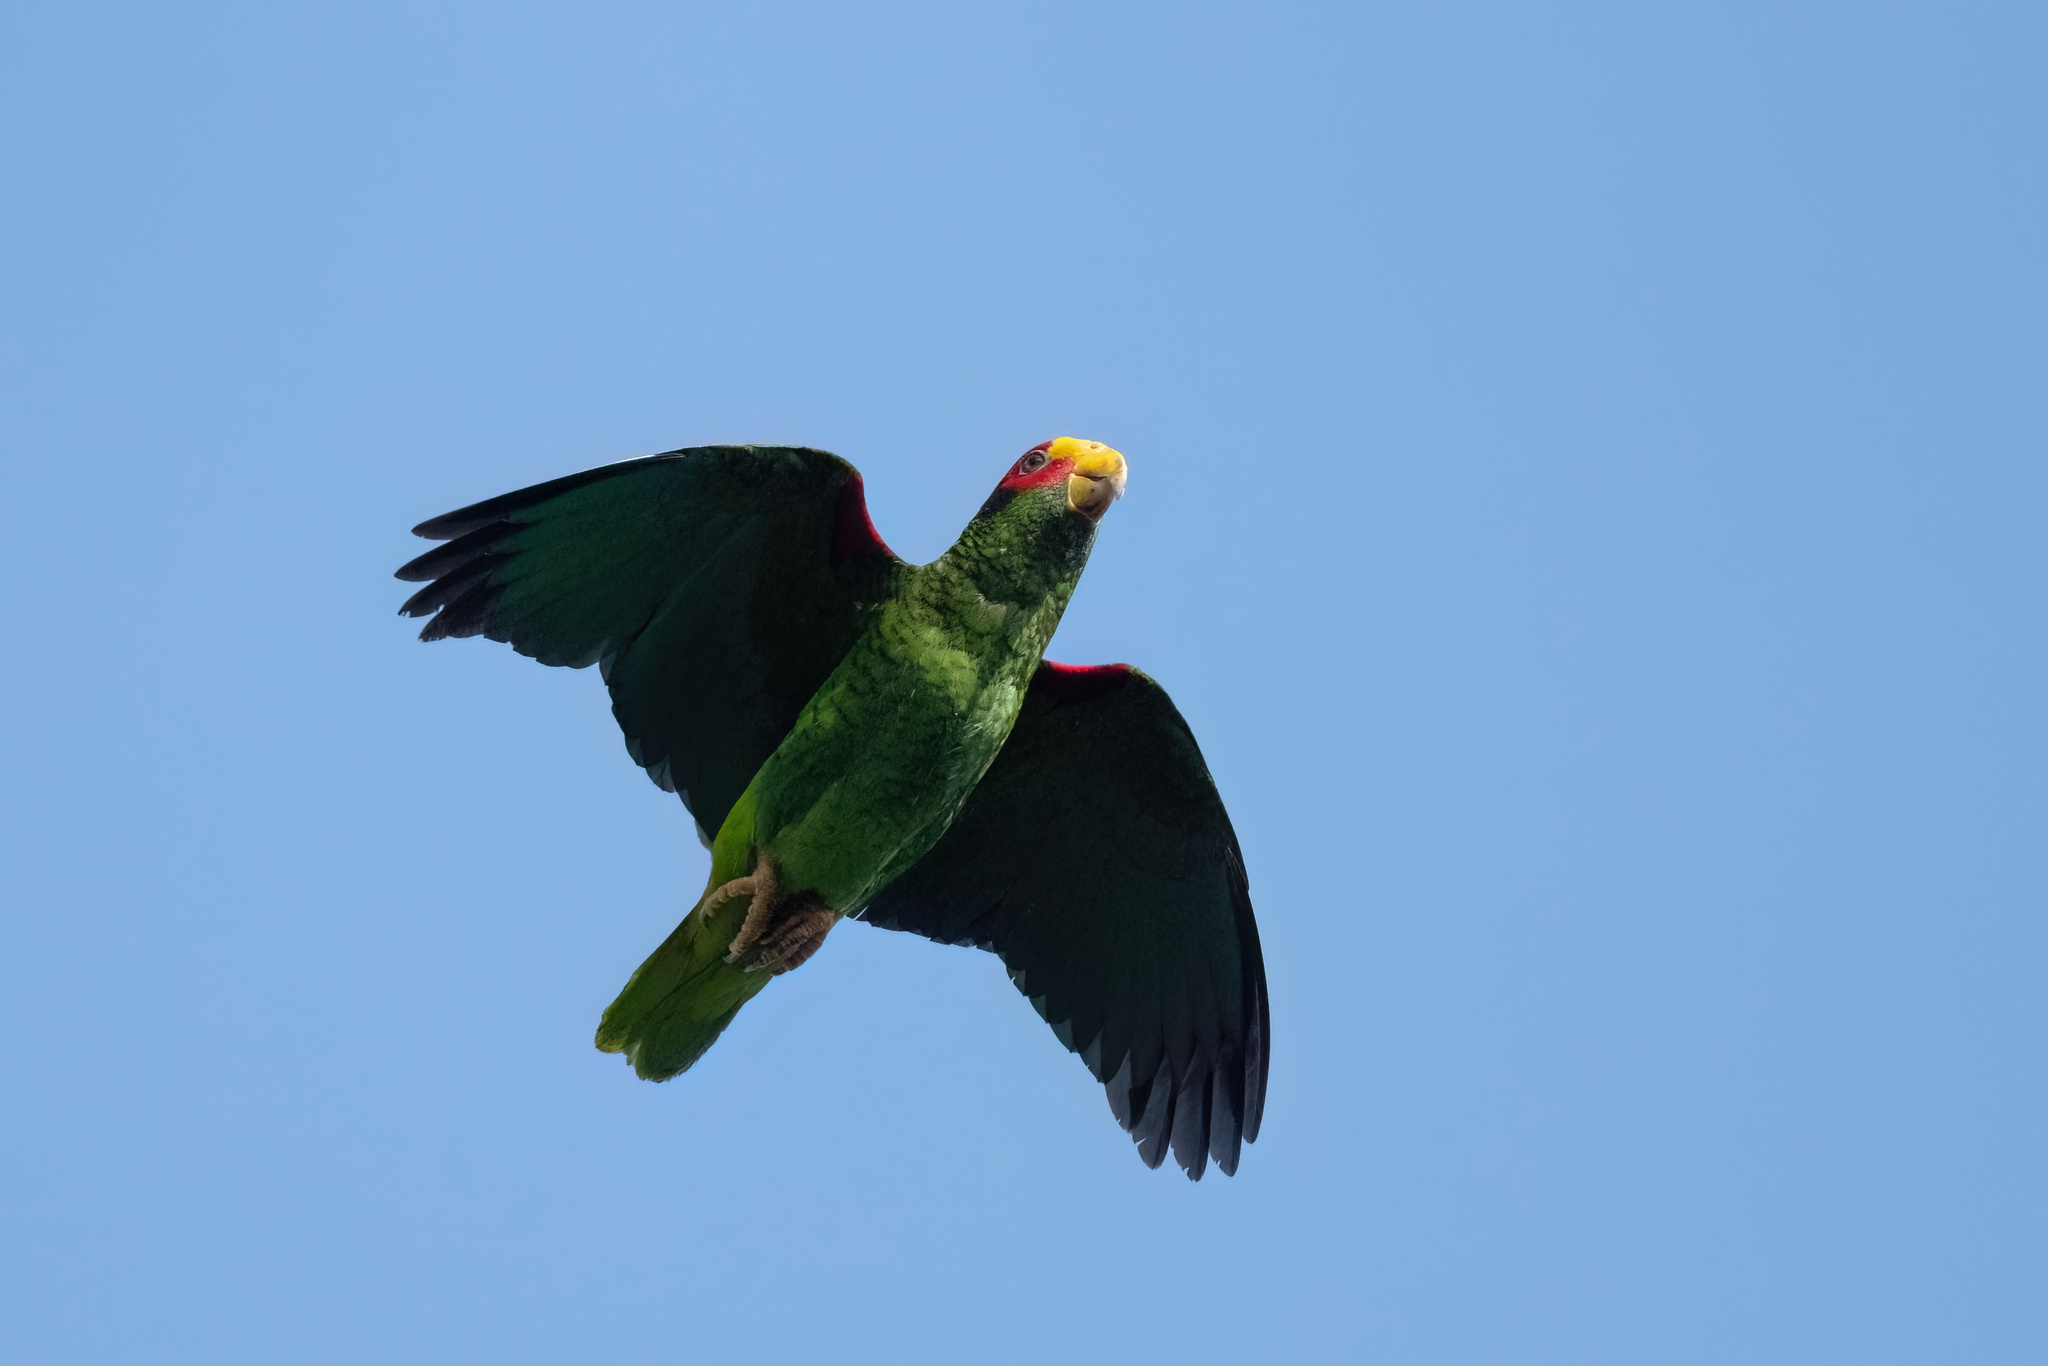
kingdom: Animalia
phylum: Chordata
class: Aves
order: Psittaciformes
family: Psittacidae
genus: Amazona
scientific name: Amazona xantholora
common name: Yucatan amazon
